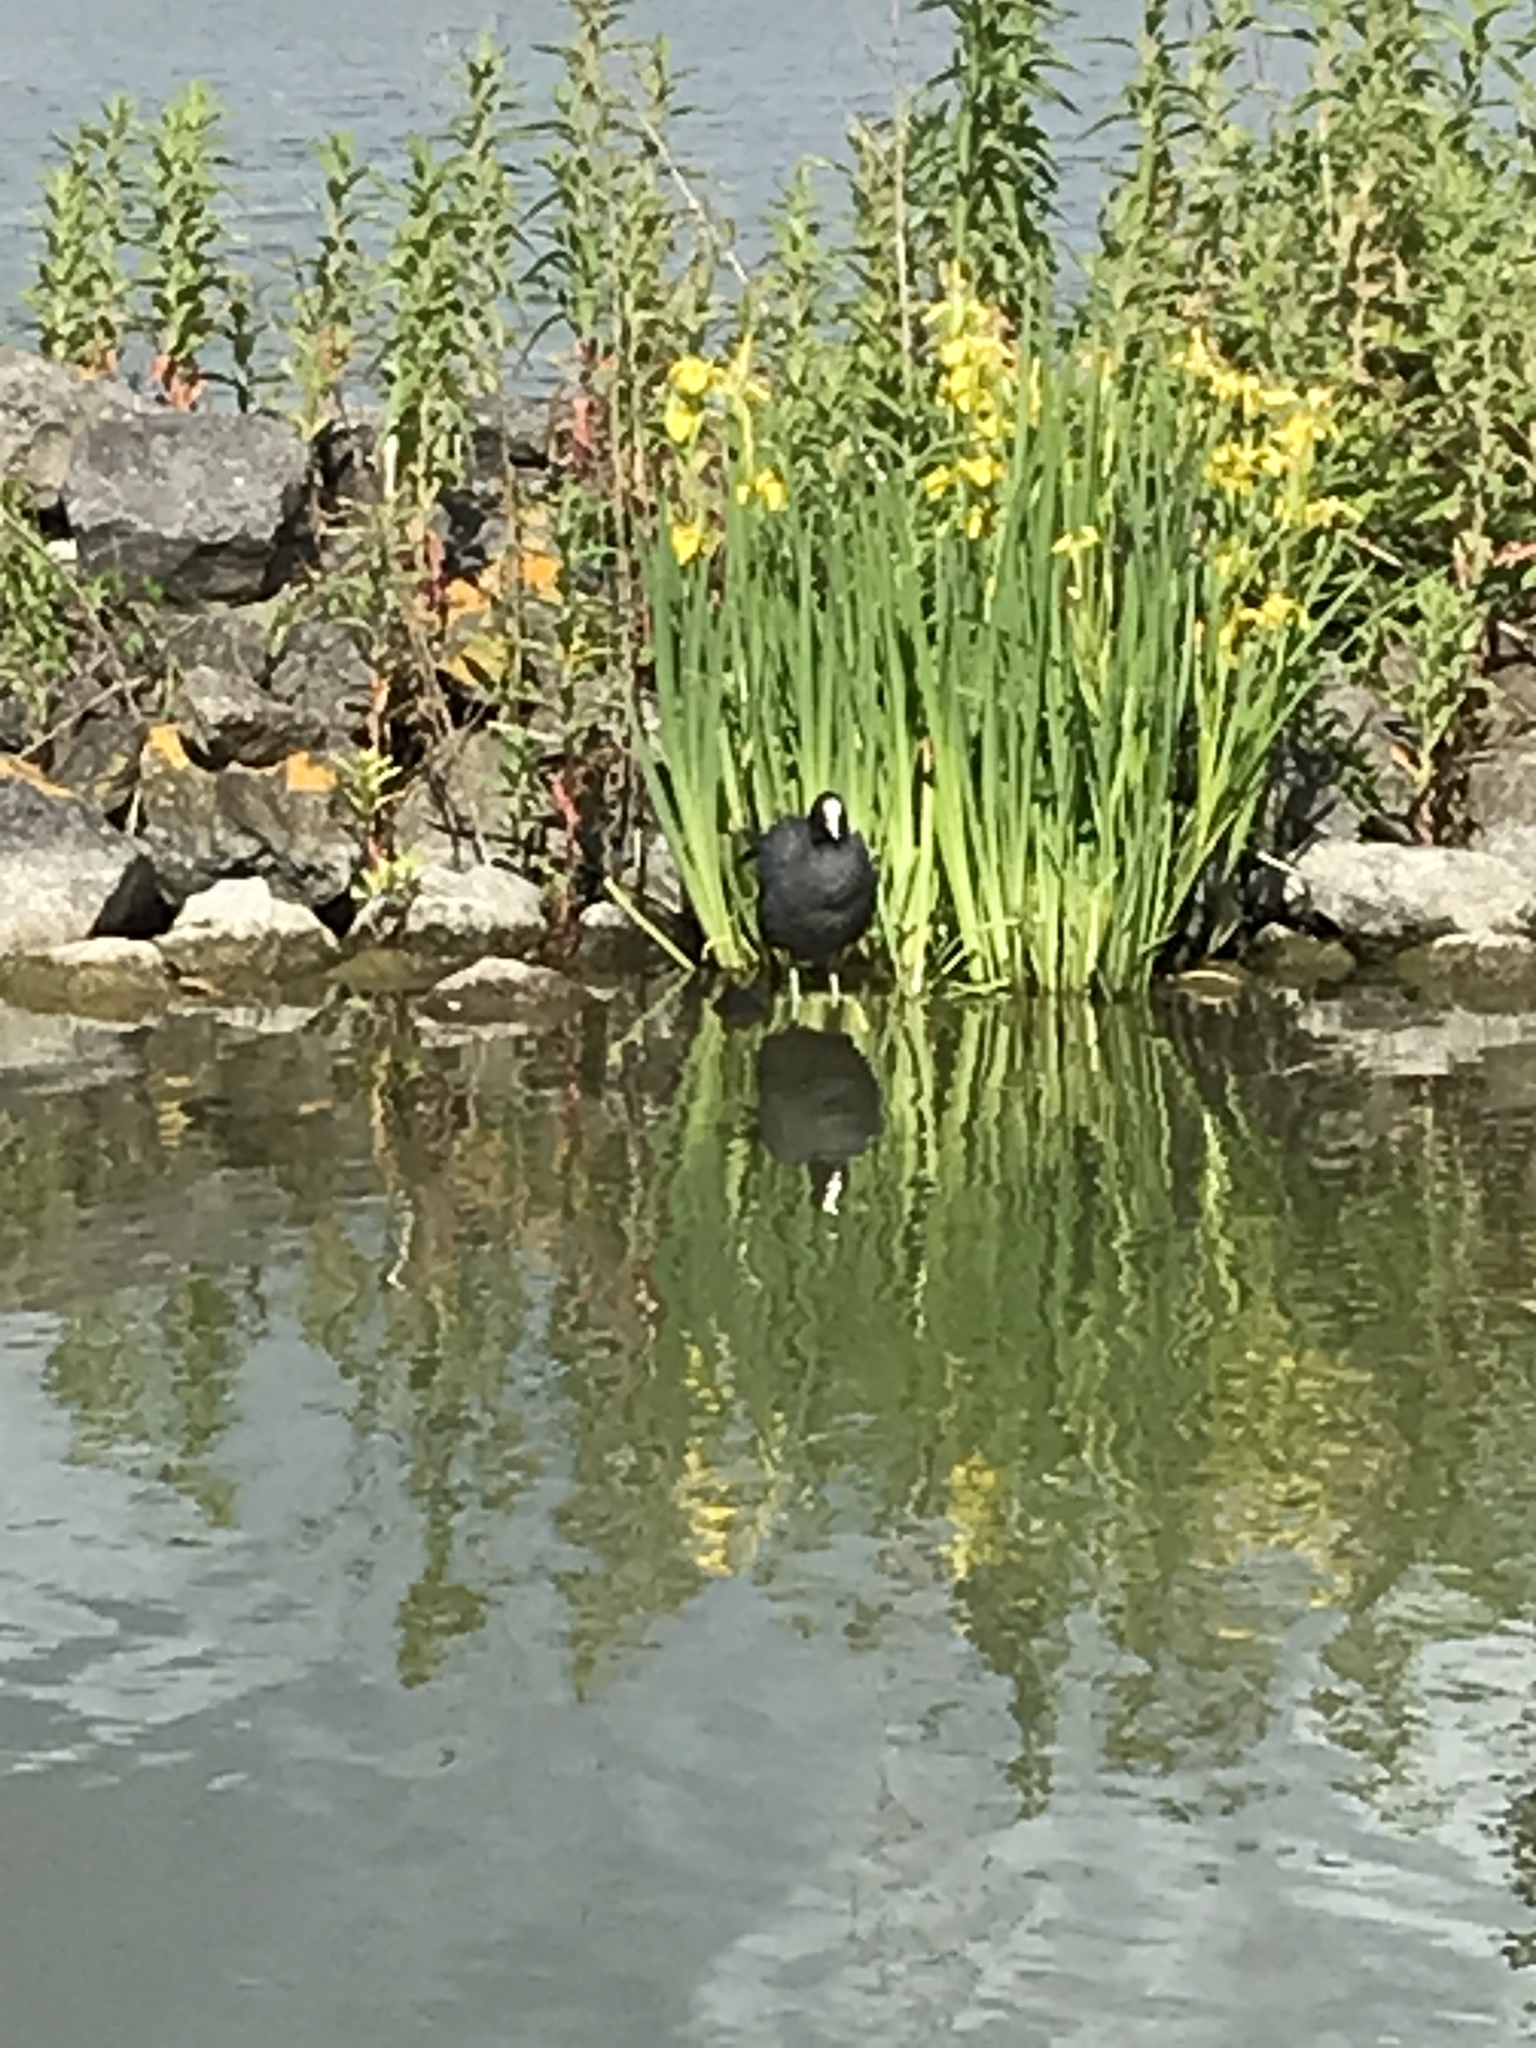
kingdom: Animalia
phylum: Chordata
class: Aves
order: Gruiformes
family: Rallidae
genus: Fulica
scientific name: Fulica atra
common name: Eurasian coot
